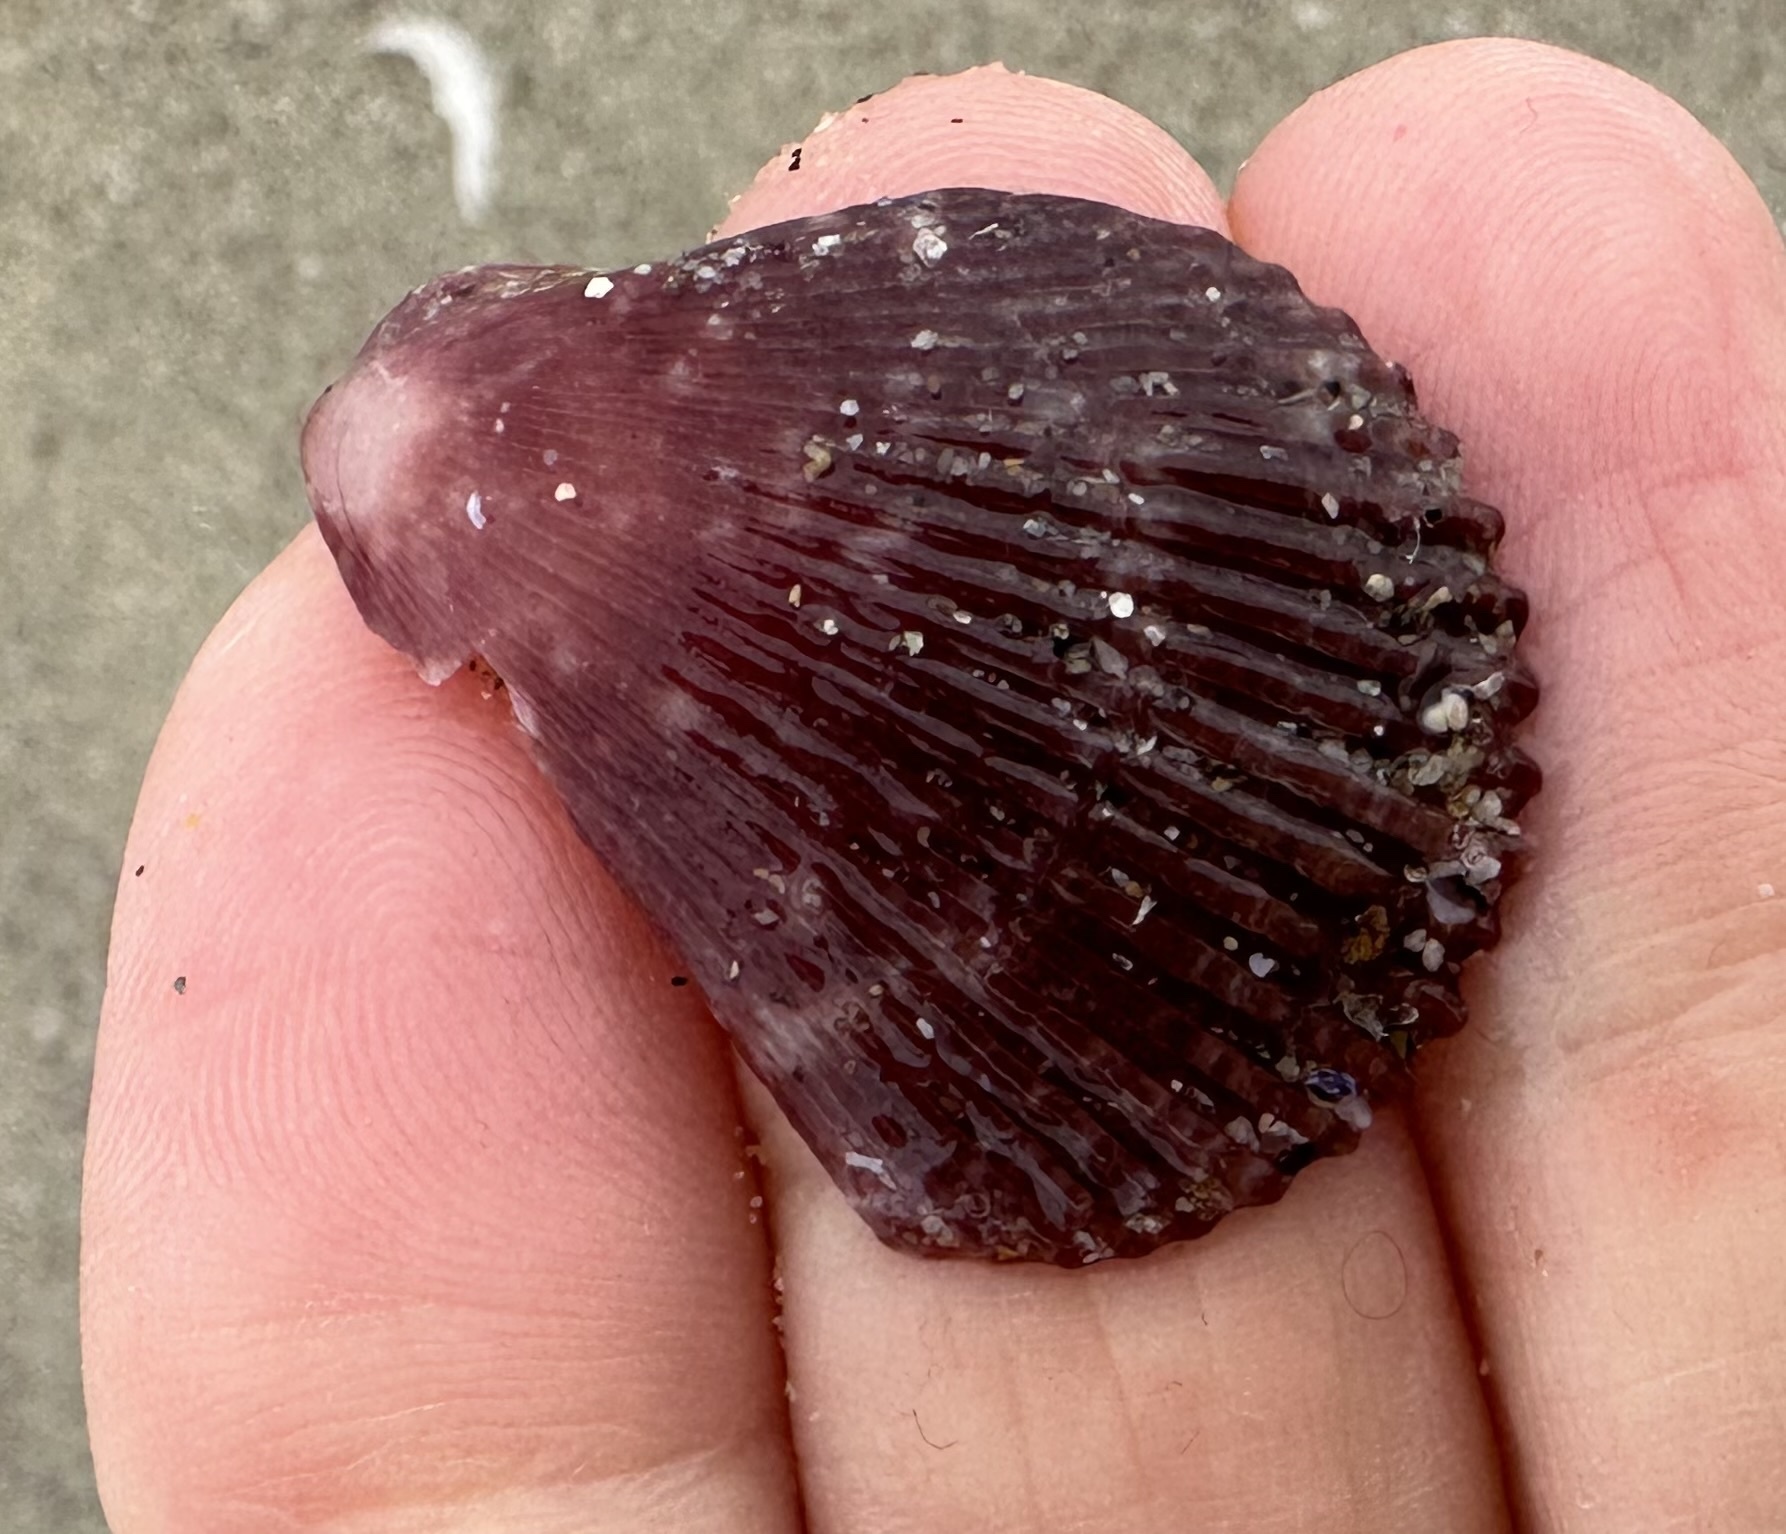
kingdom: Animalia
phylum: Mollusca
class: Bivalvia
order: Pectinida
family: Pectinidae
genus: Mimachlamys
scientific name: Mimachlamys varia
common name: Variegated scallop
